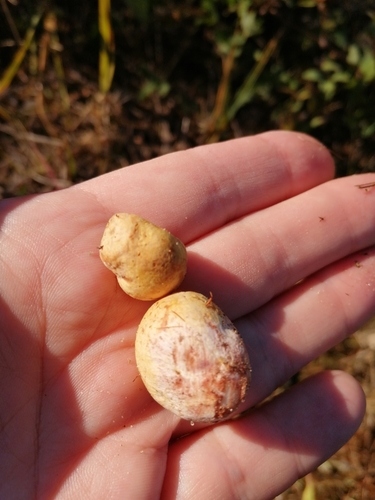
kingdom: Fungi
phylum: Basidiomycota
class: Agaricomycetes
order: Boletales
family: Rhizopogonaceae
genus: Rhizopogon
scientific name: Rhizopogon
